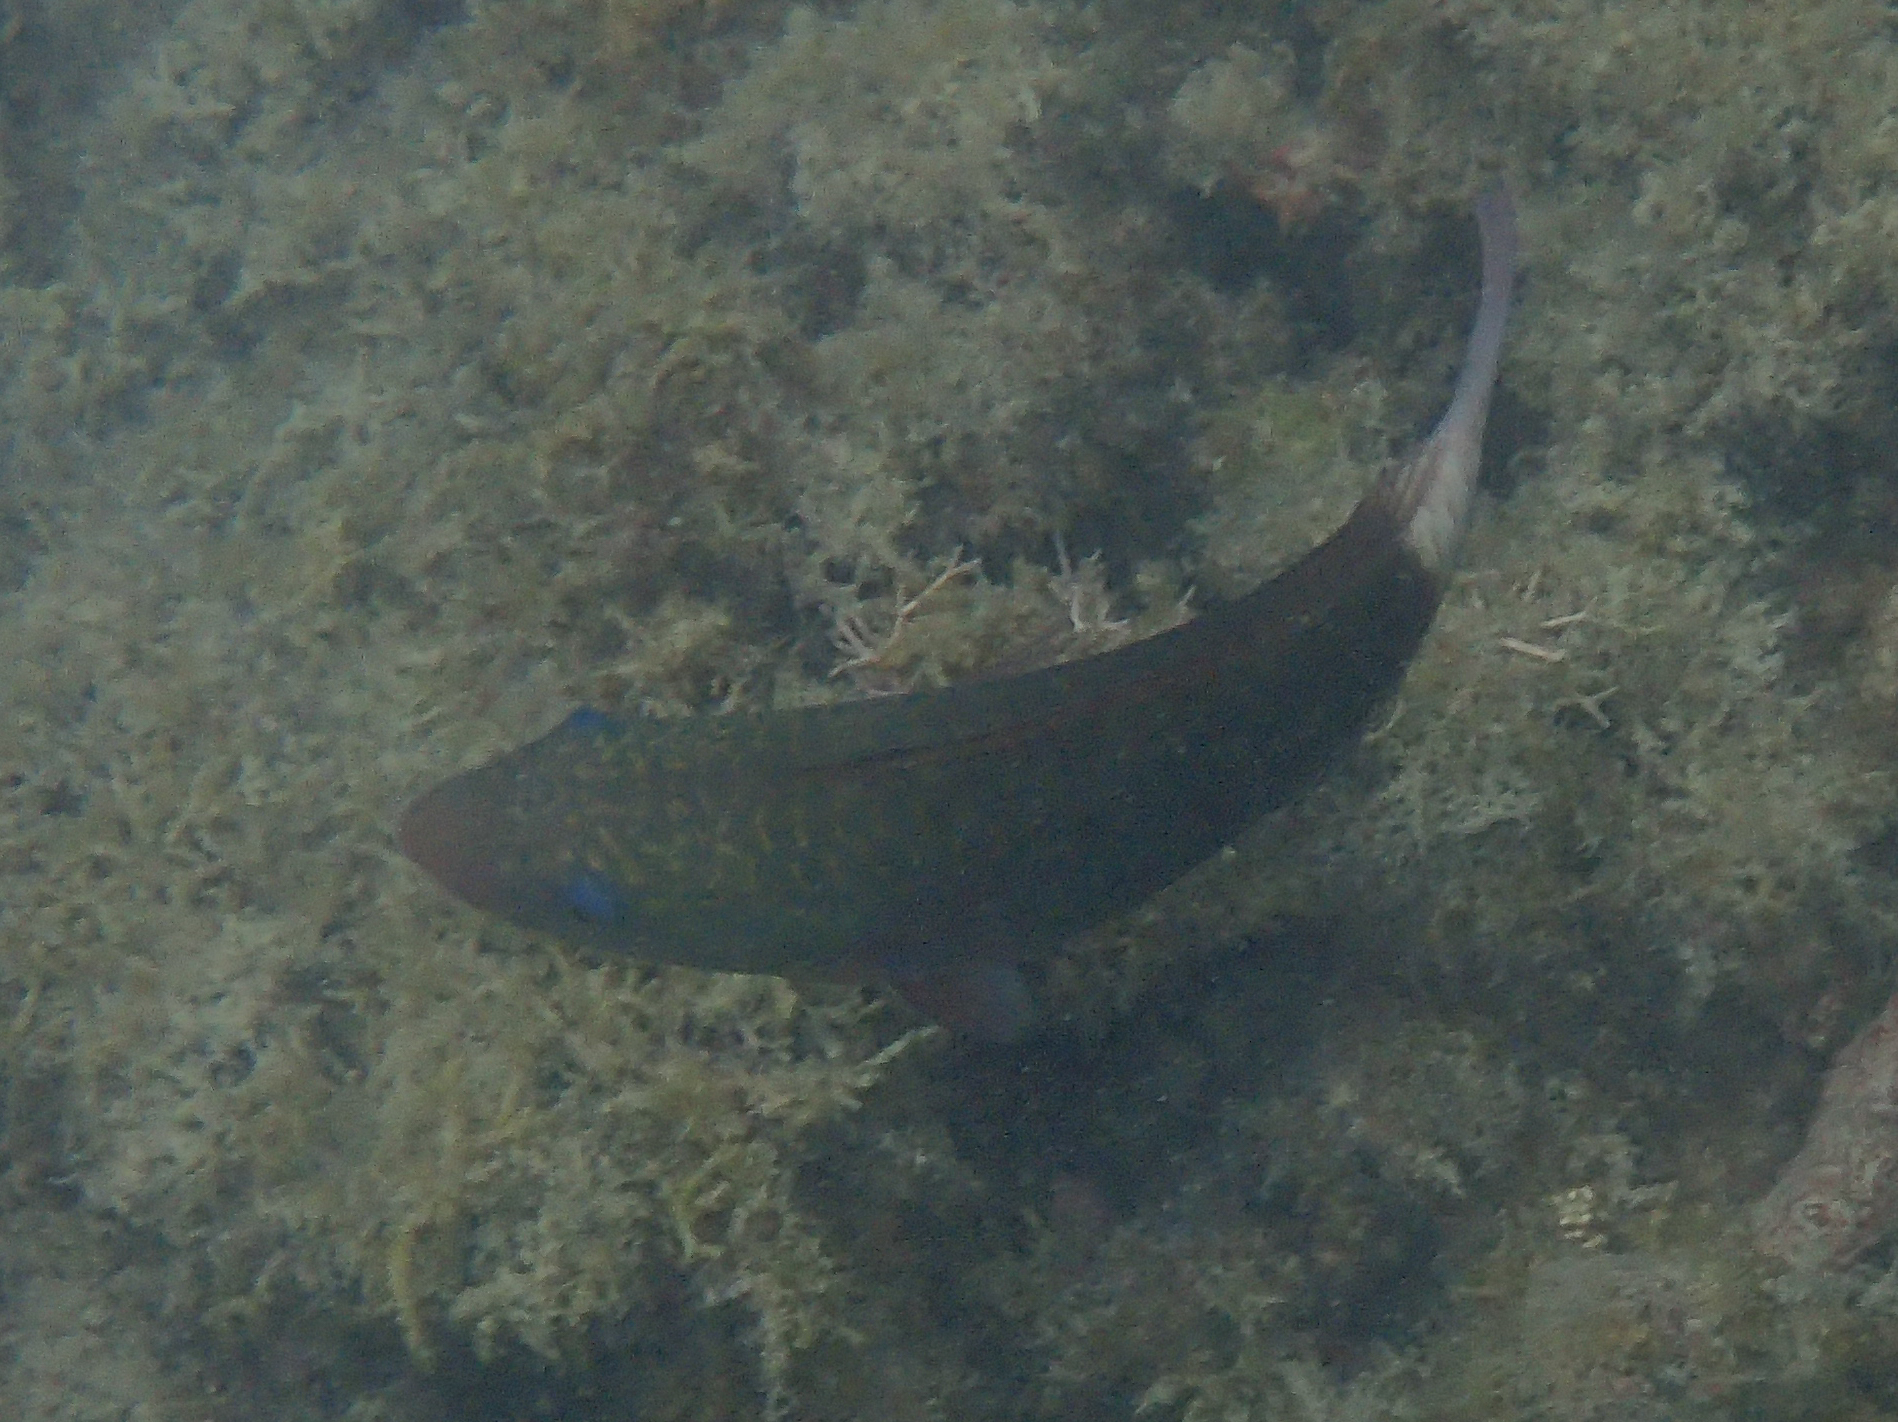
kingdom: Animalia
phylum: Chordata
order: Perciformes
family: Scaridae
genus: Chlorurus
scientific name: Chlorurus spilurus
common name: Bullethead parrotfish
